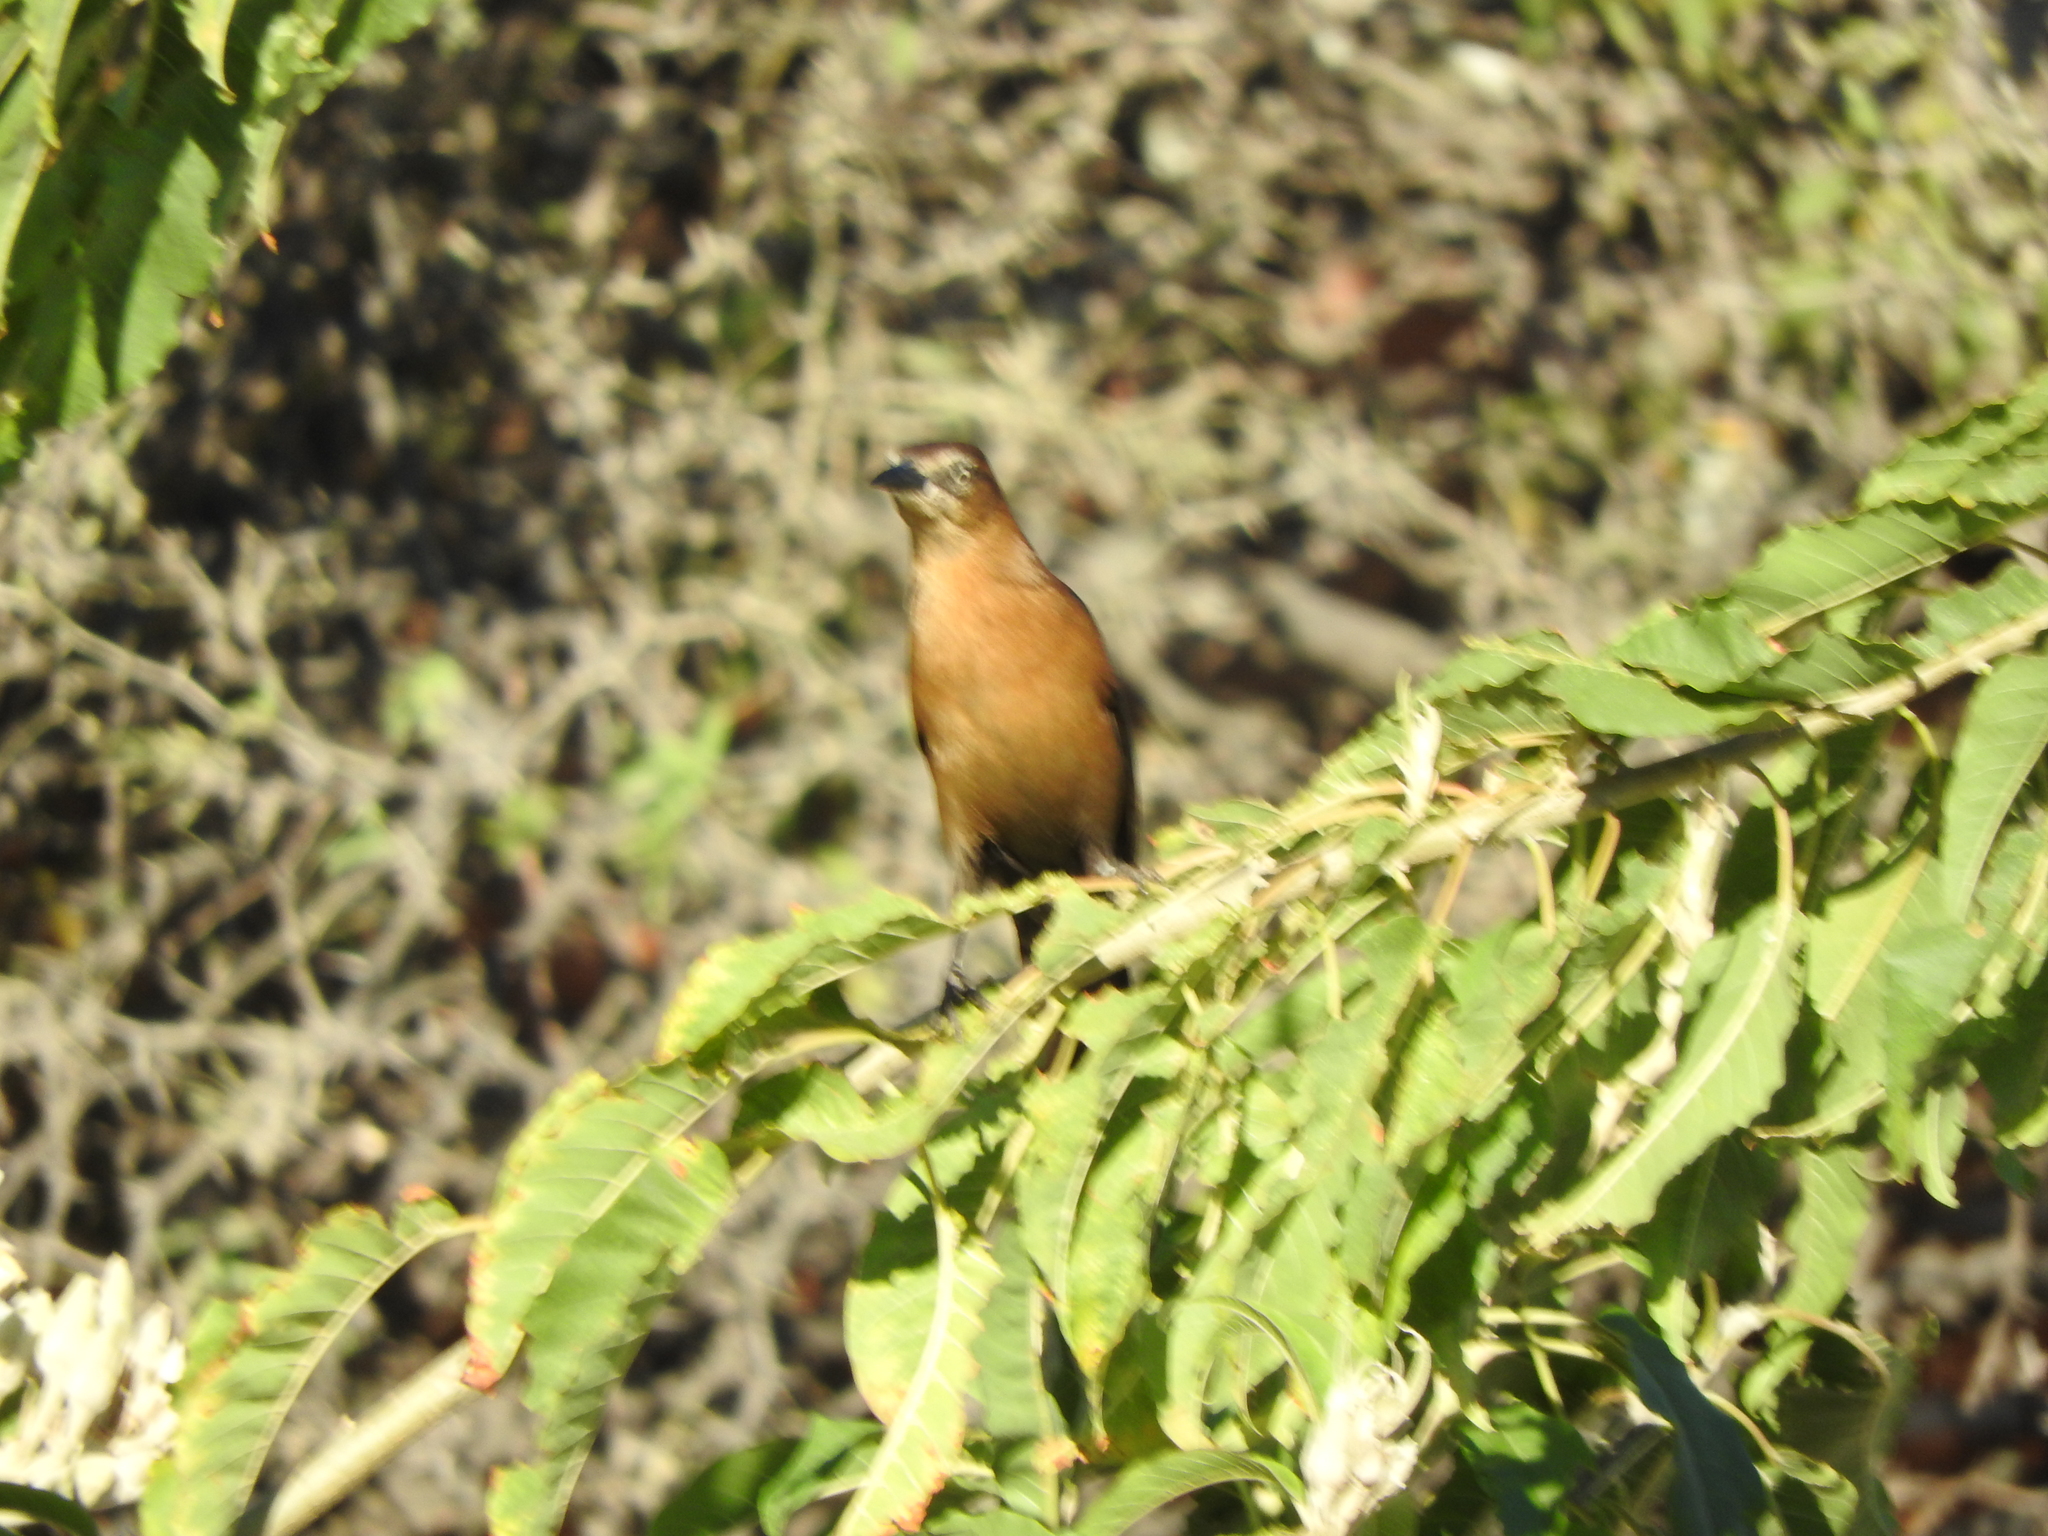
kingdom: Animalia
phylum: Chordata
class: Aves
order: Passeriformes
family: Icteridae
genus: Quiscalus
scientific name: Quiscalus mexicanus
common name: Great-tailed grackle
